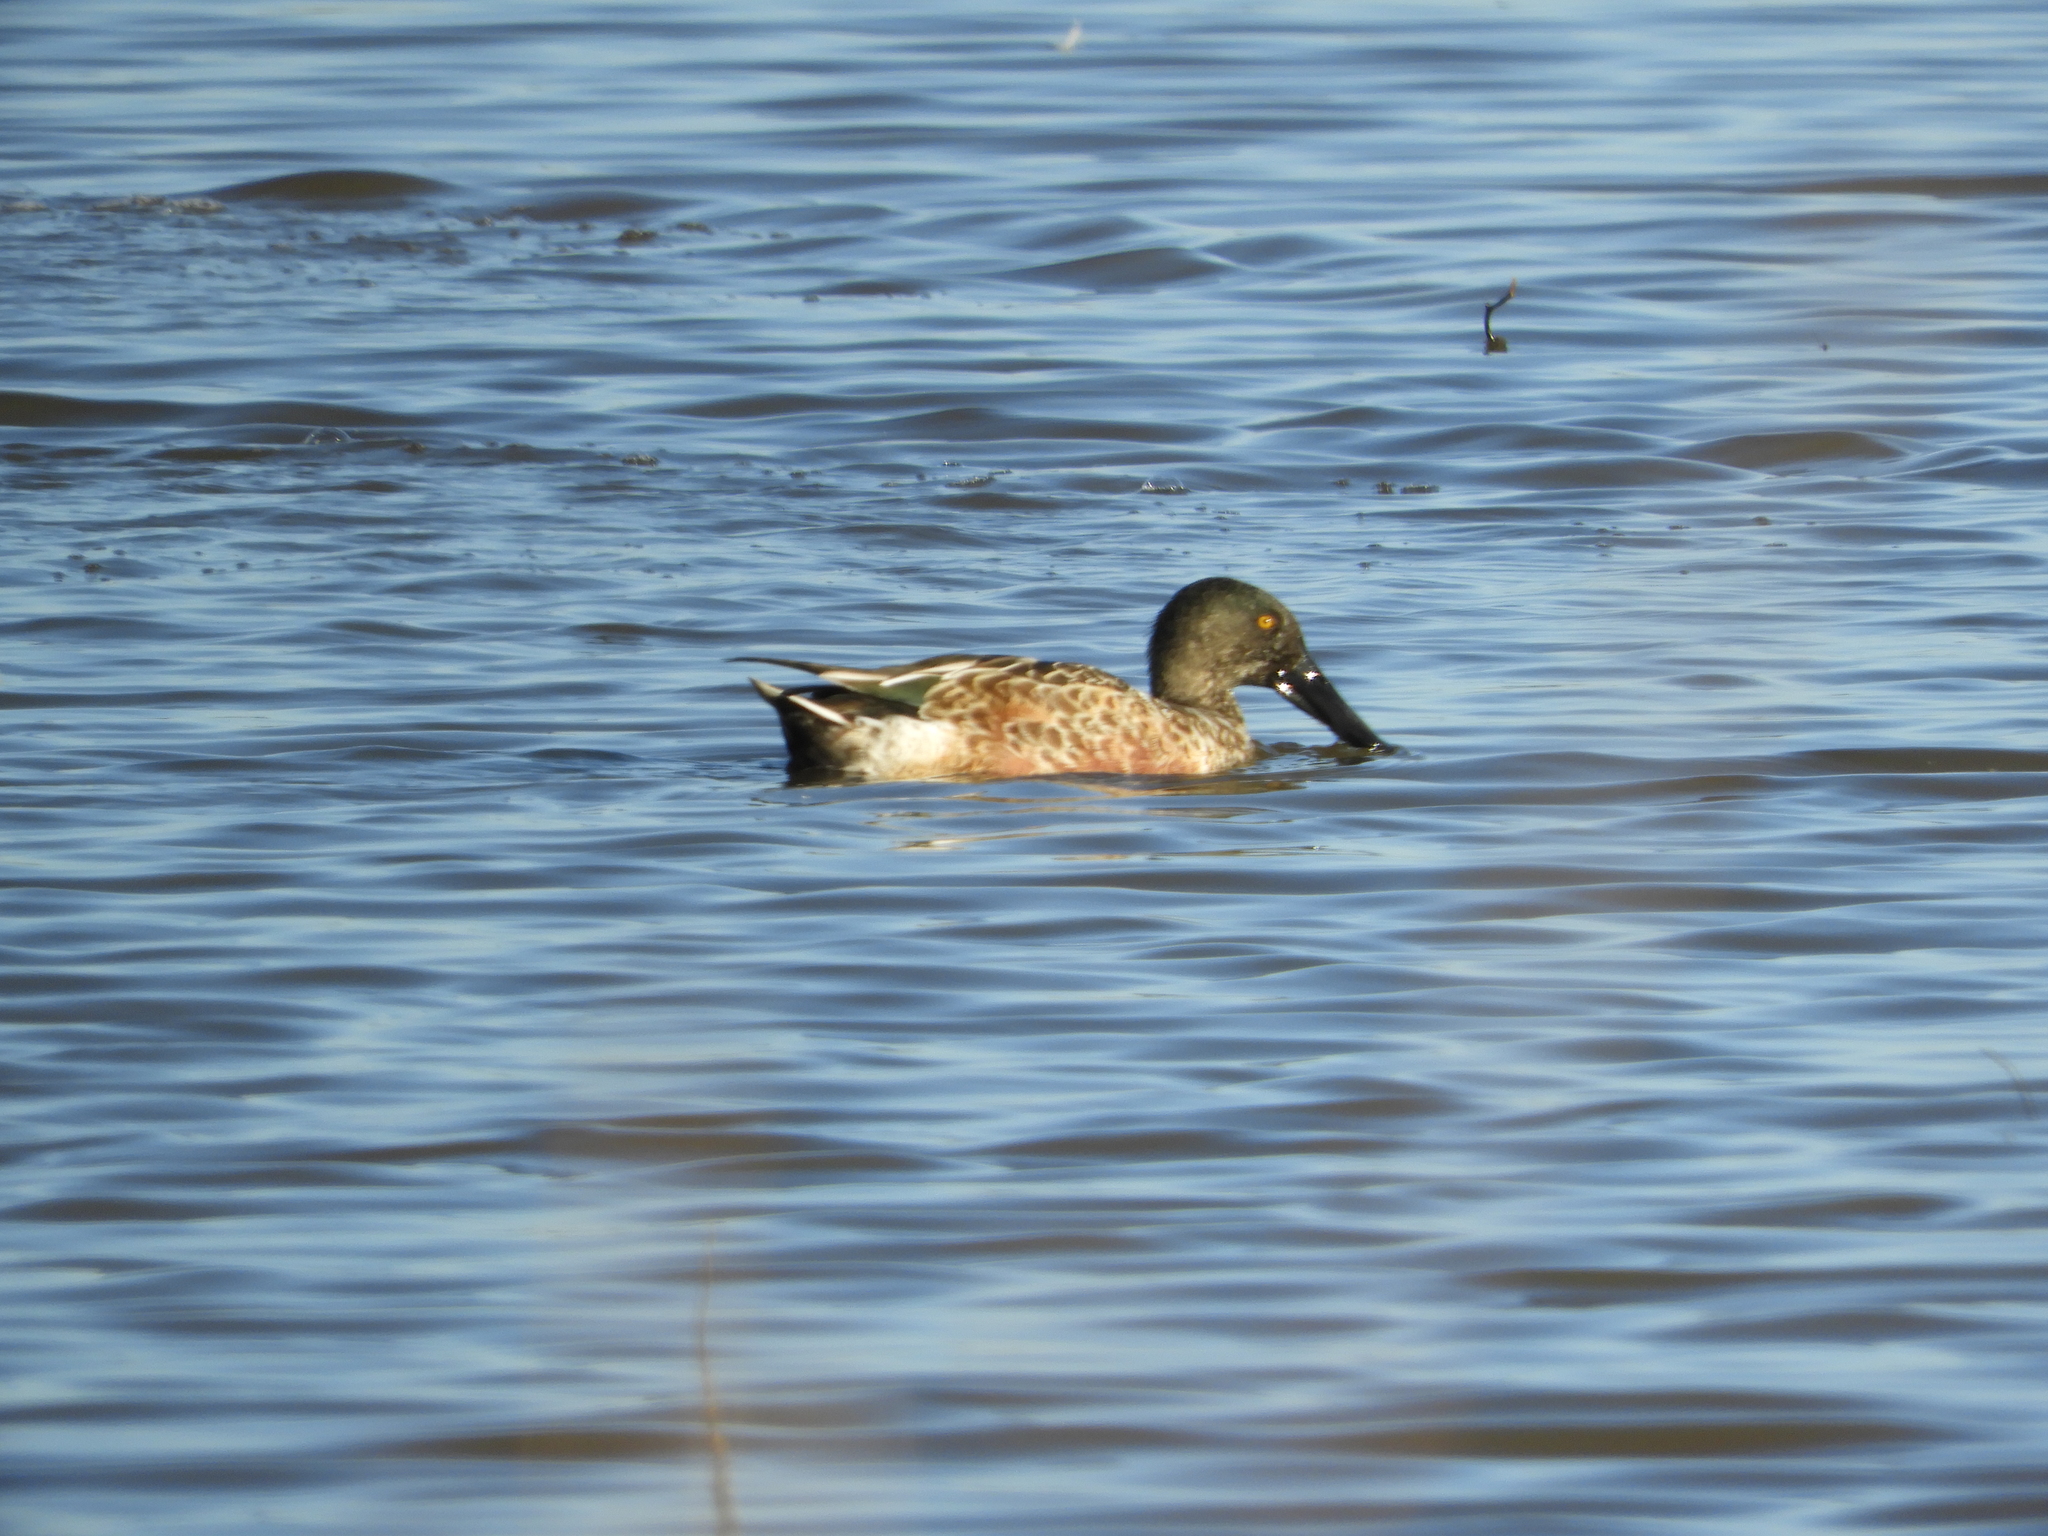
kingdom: Animalia
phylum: Chordata
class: Aves
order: Anseriformes
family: Anatidae
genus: Spatula
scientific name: Spatula clypeata
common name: Northern shoveler
